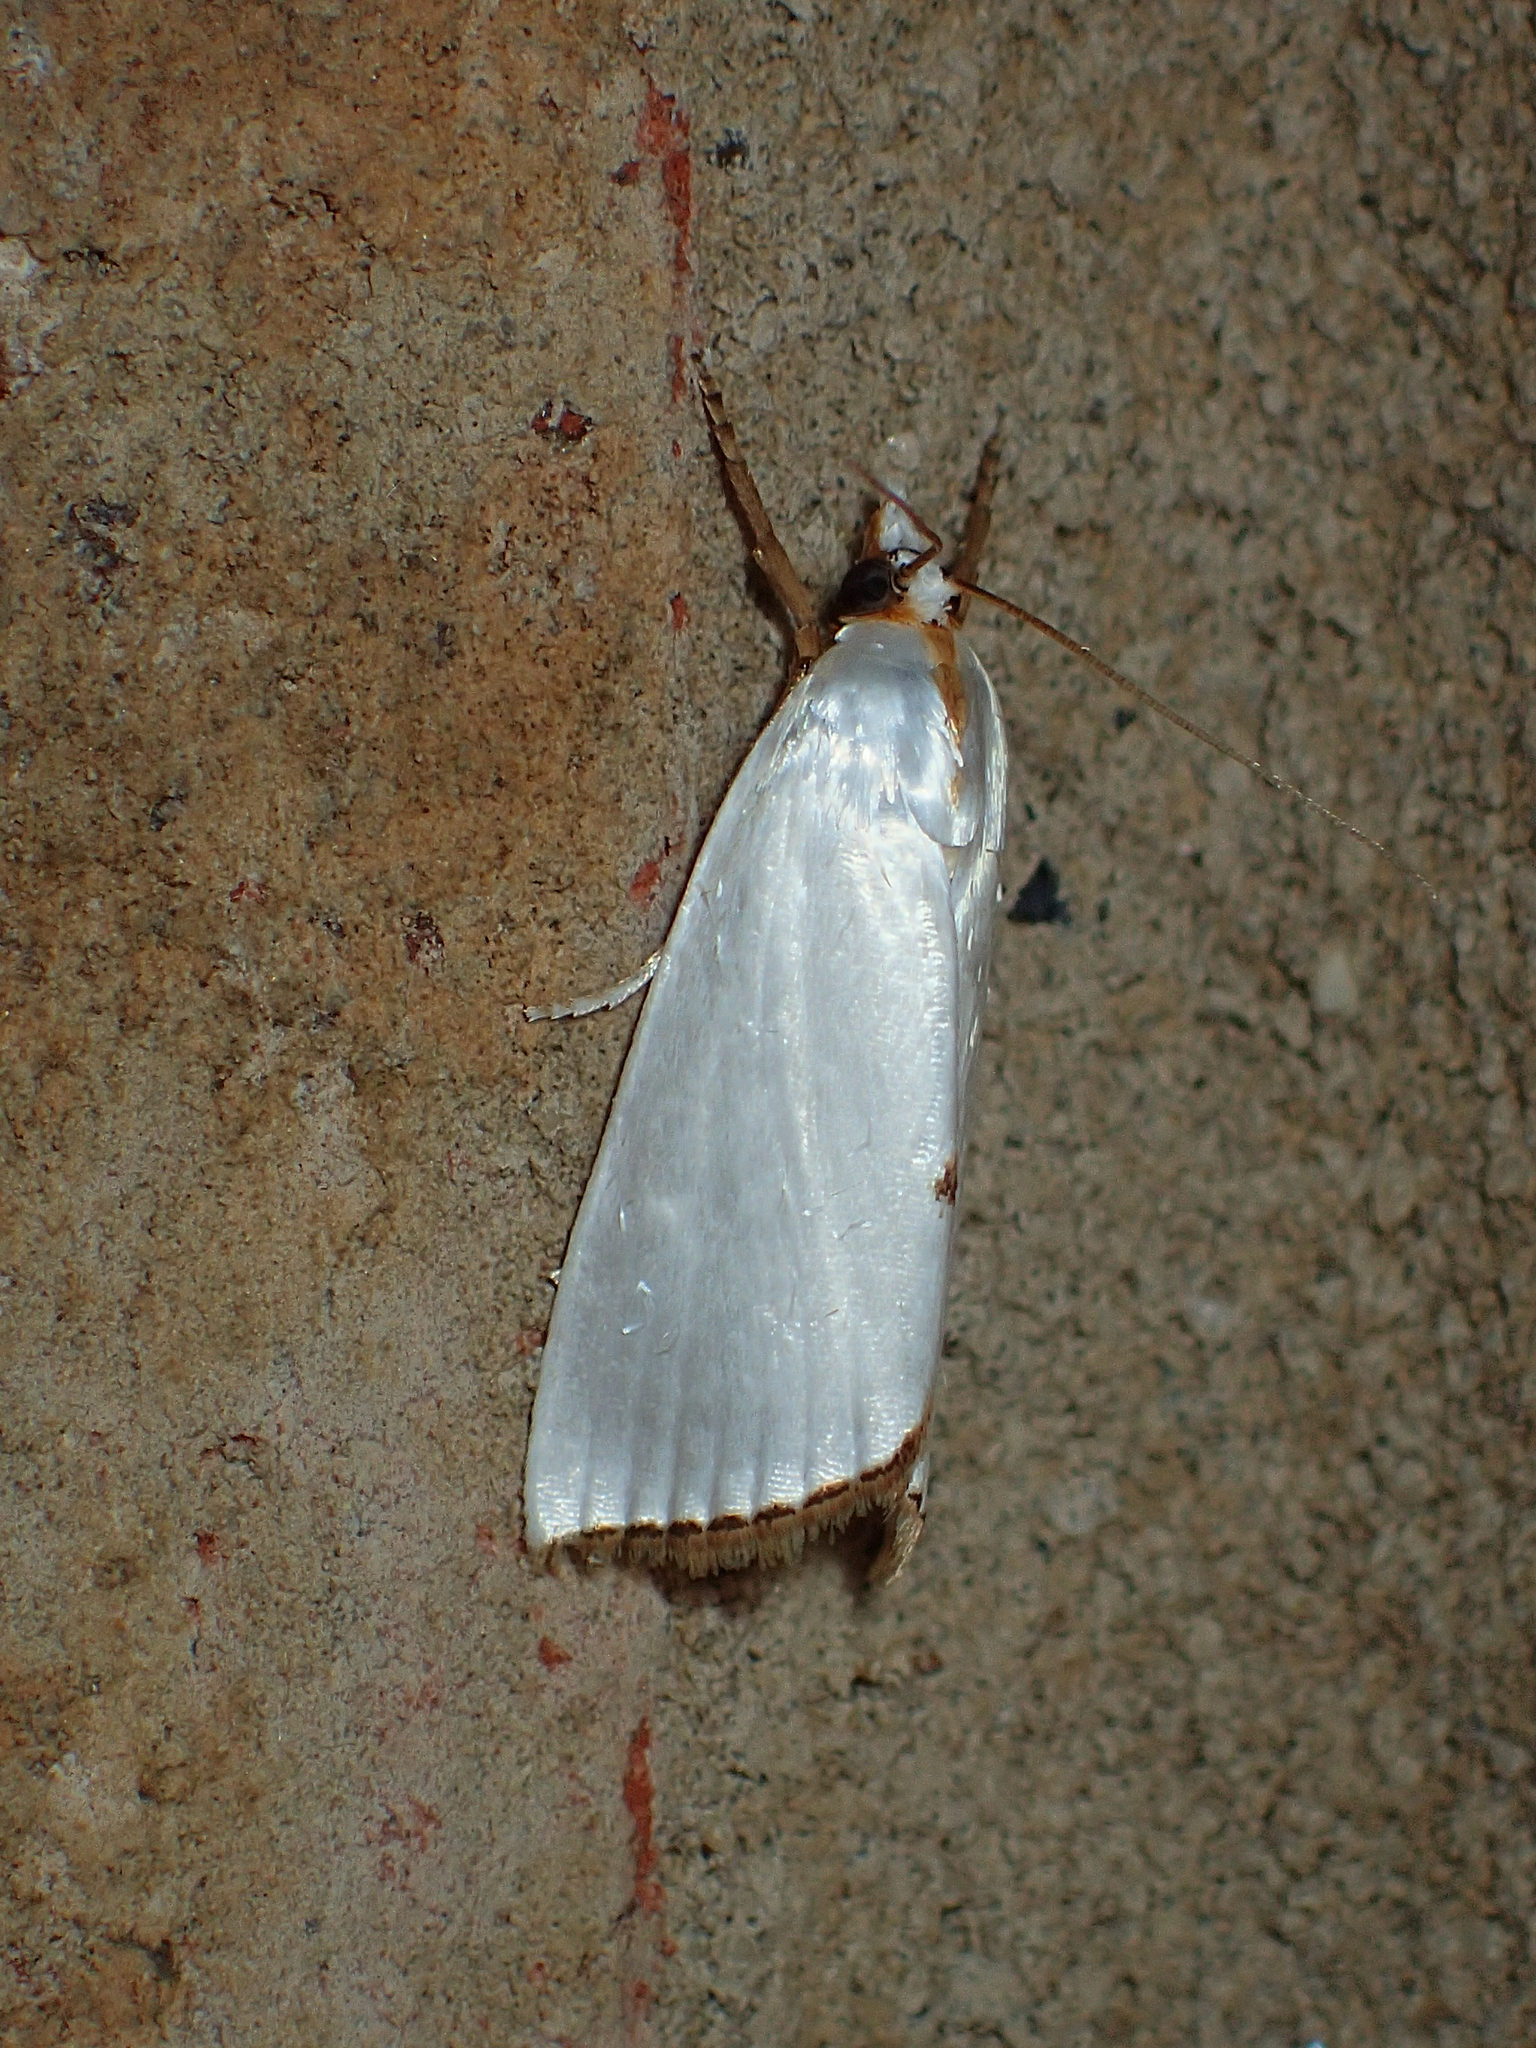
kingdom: Animalia
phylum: Arthropoda
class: Insecta
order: Lepidoptera
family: Crambidae
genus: Argyria
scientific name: Argyria nivalis
